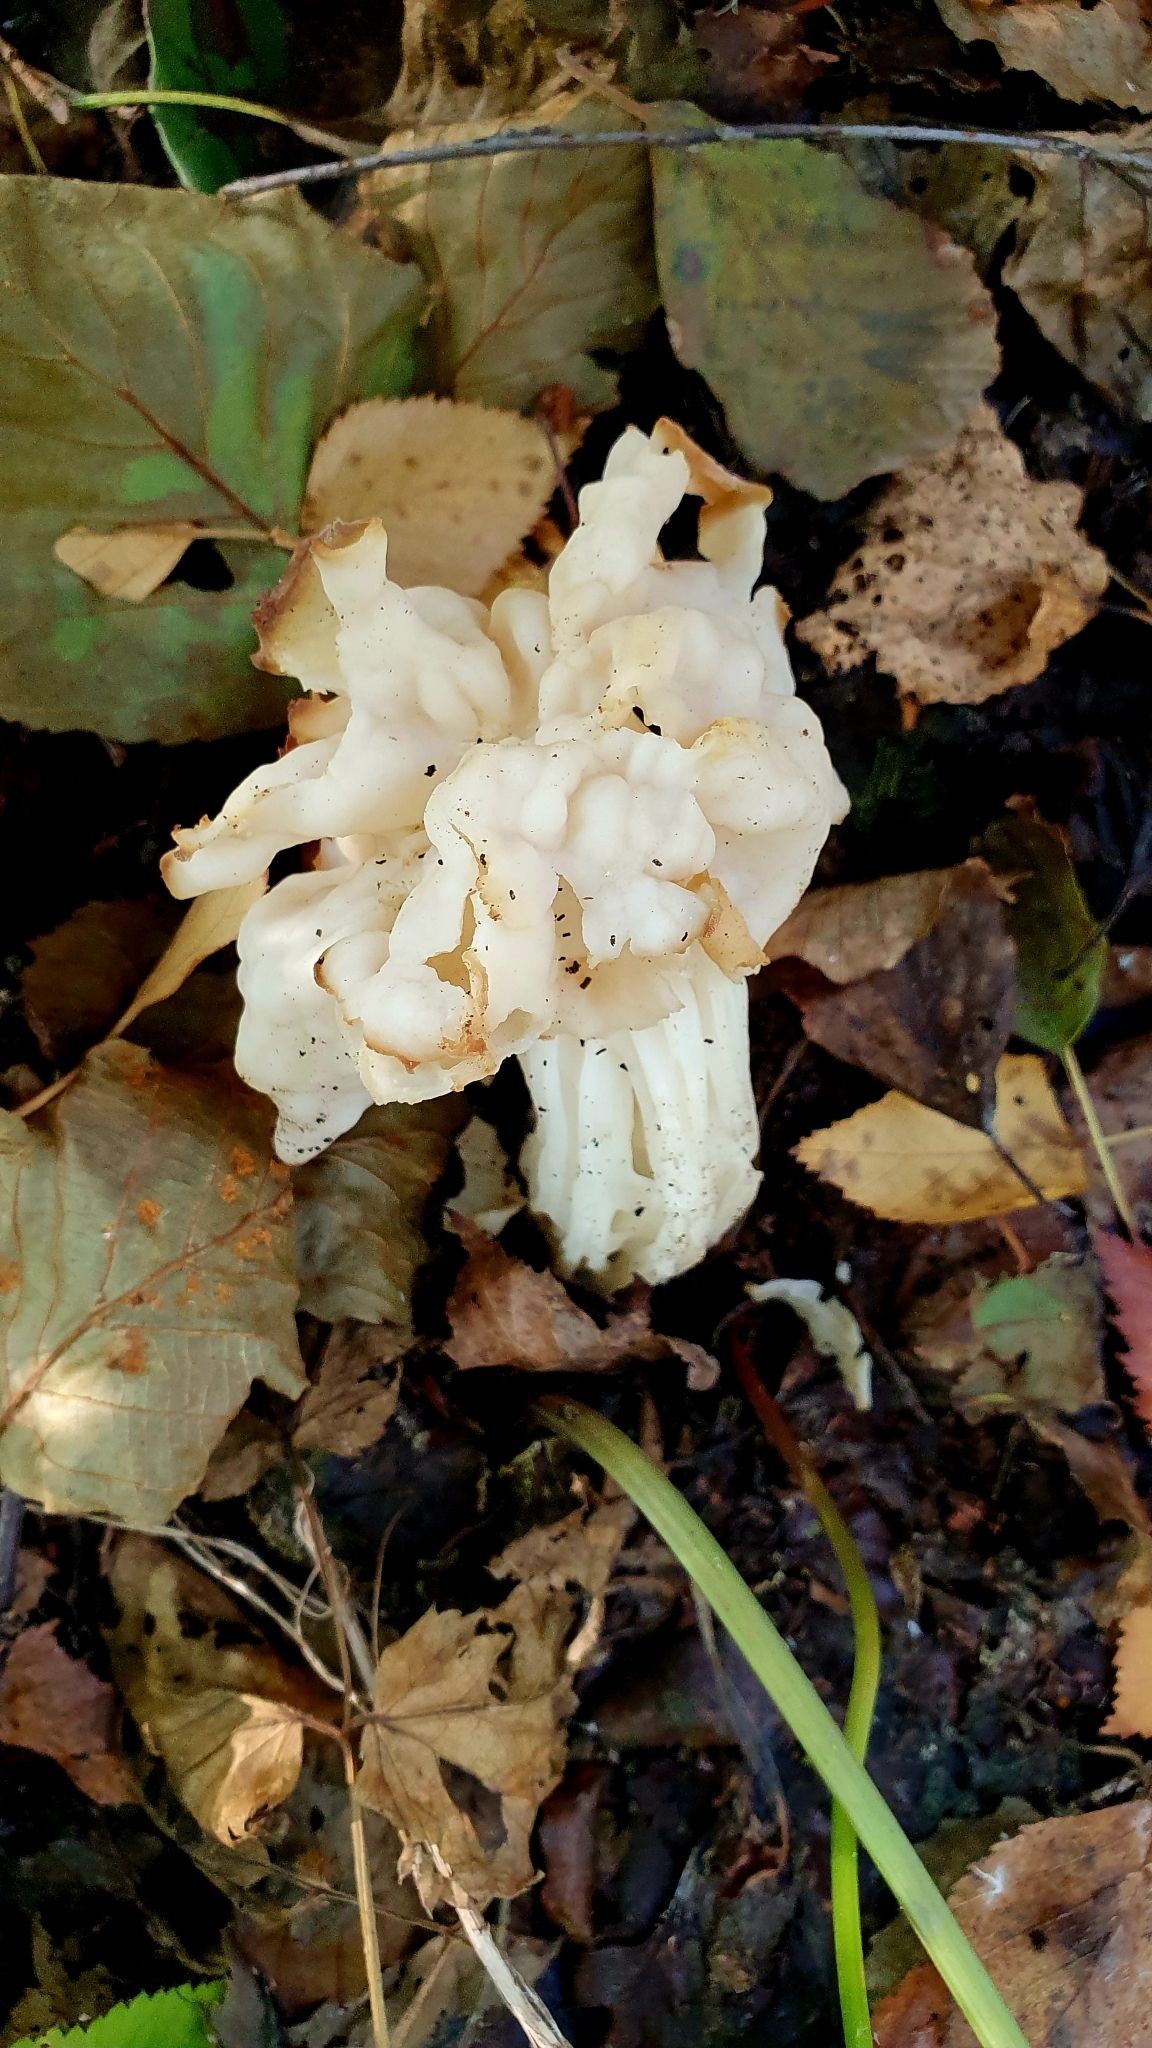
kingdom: Fungi
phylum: Ascomycota
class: Pezizomycetes
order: Pezizales
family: Helvellaceae
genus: Helvella
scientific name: Helvella crispa
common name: White saddle
